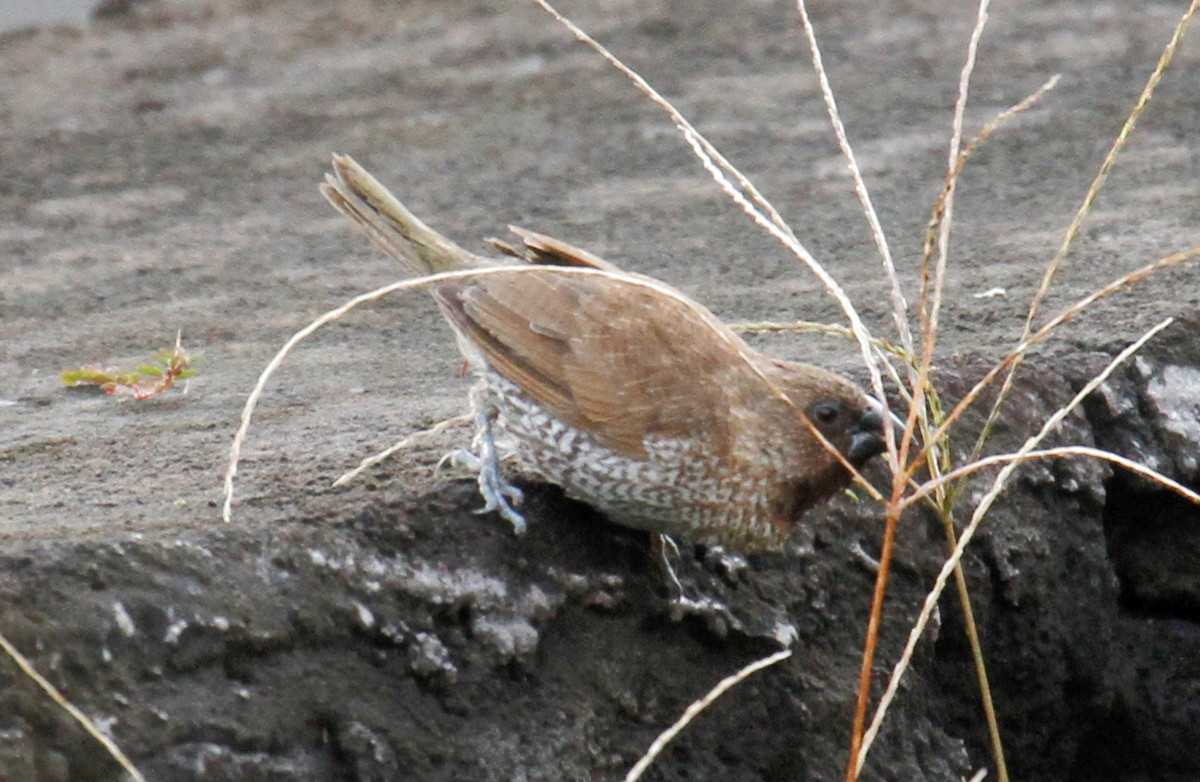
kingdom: Animalia
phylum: Chordata
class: Aves
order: Passeriformes
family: Estrildidae
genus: Lonchura
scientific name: Lonchura punctulata
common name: Scaly-breasted munia
